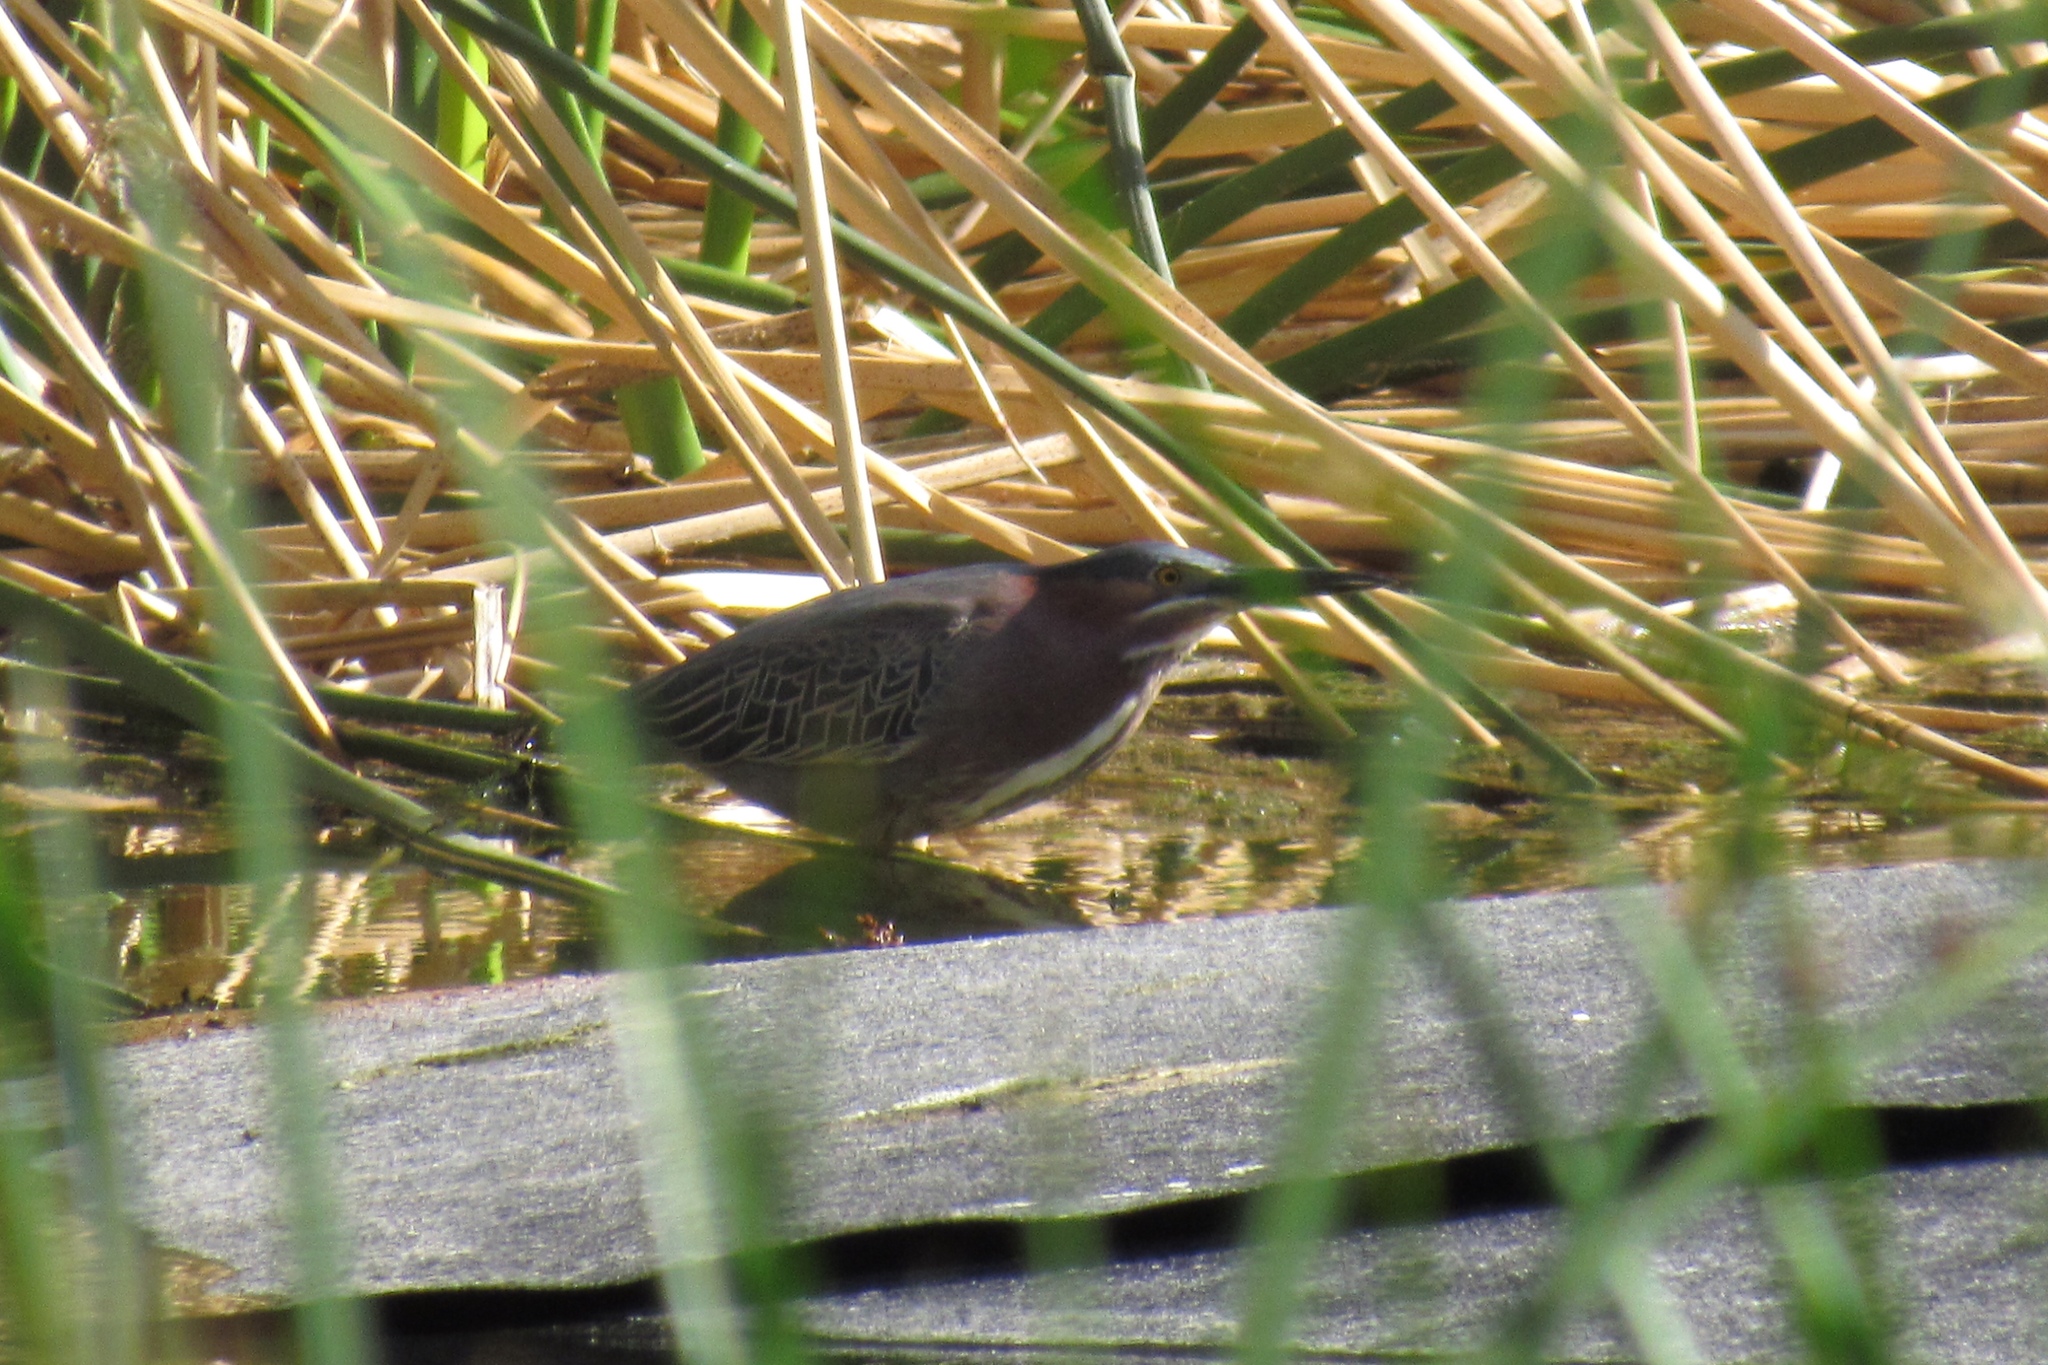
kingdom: Animalia
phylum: Chordata
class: Aves
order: Pelecaniformes
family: Ardeidae
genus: Butorides
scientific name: Butorides virescens
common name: Green heron
